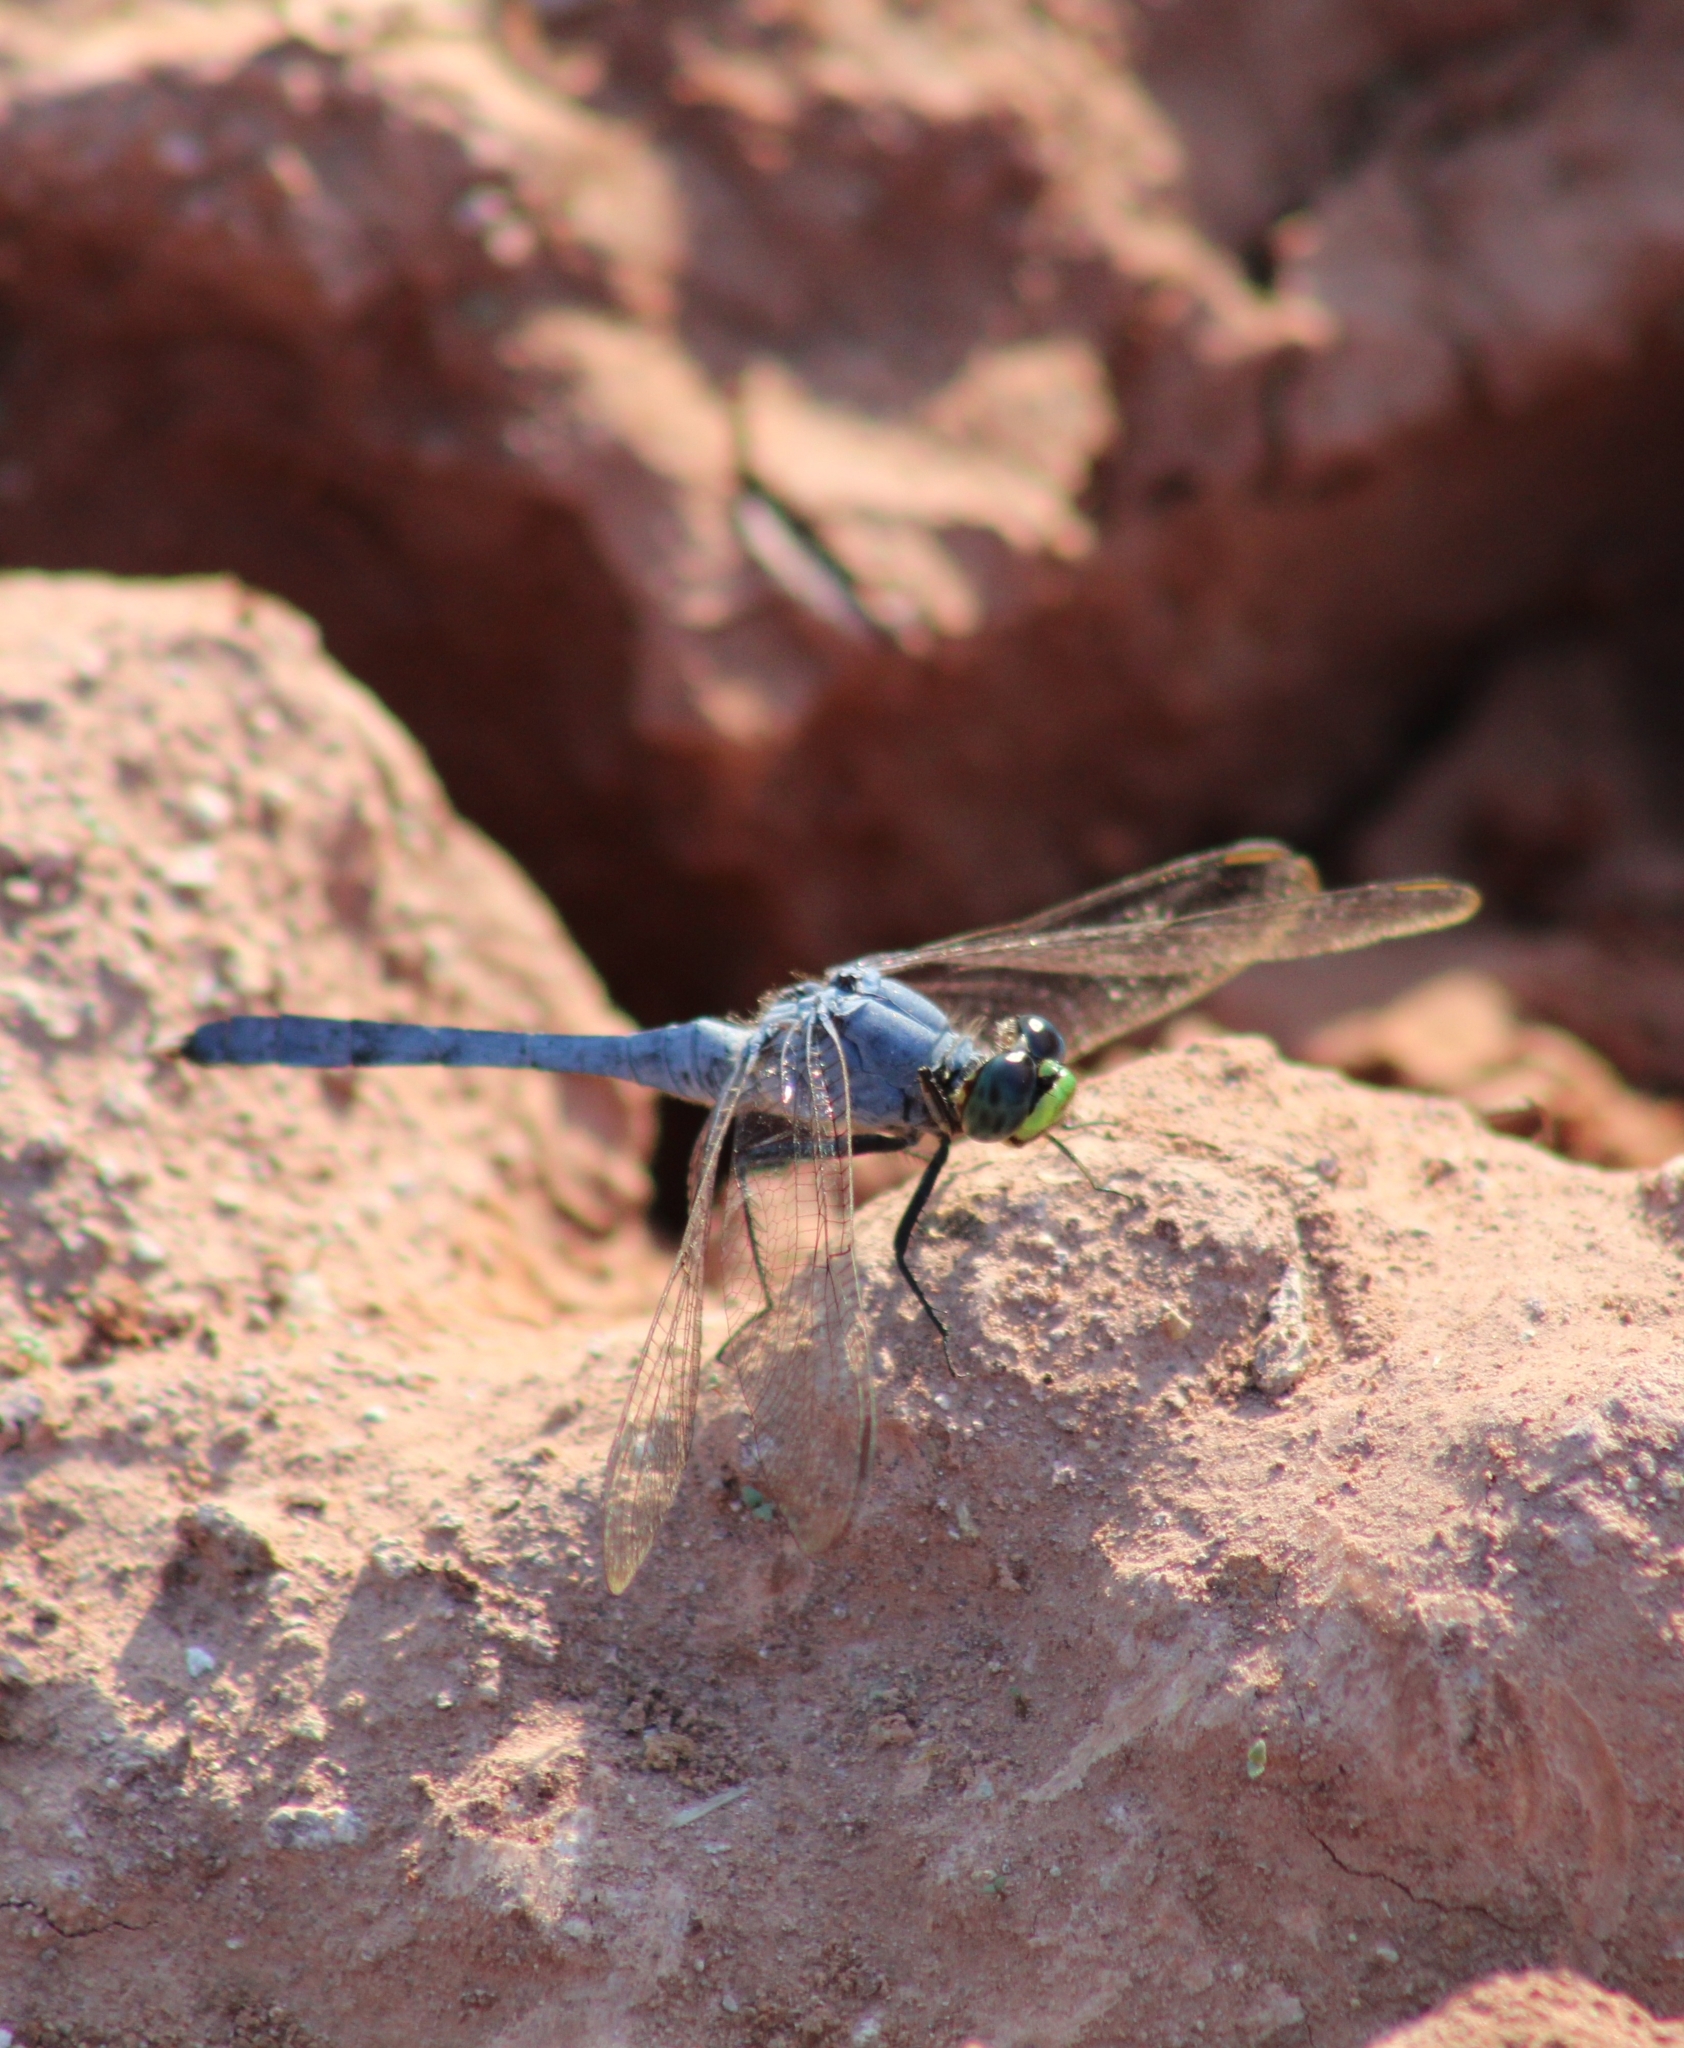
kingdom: Animalia
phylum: Arthropoda
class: Insecta
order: Odonata
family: Libellulidae
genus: Erythemis
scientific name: Erythemis simplicicollis
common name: Eastern pondhawk
